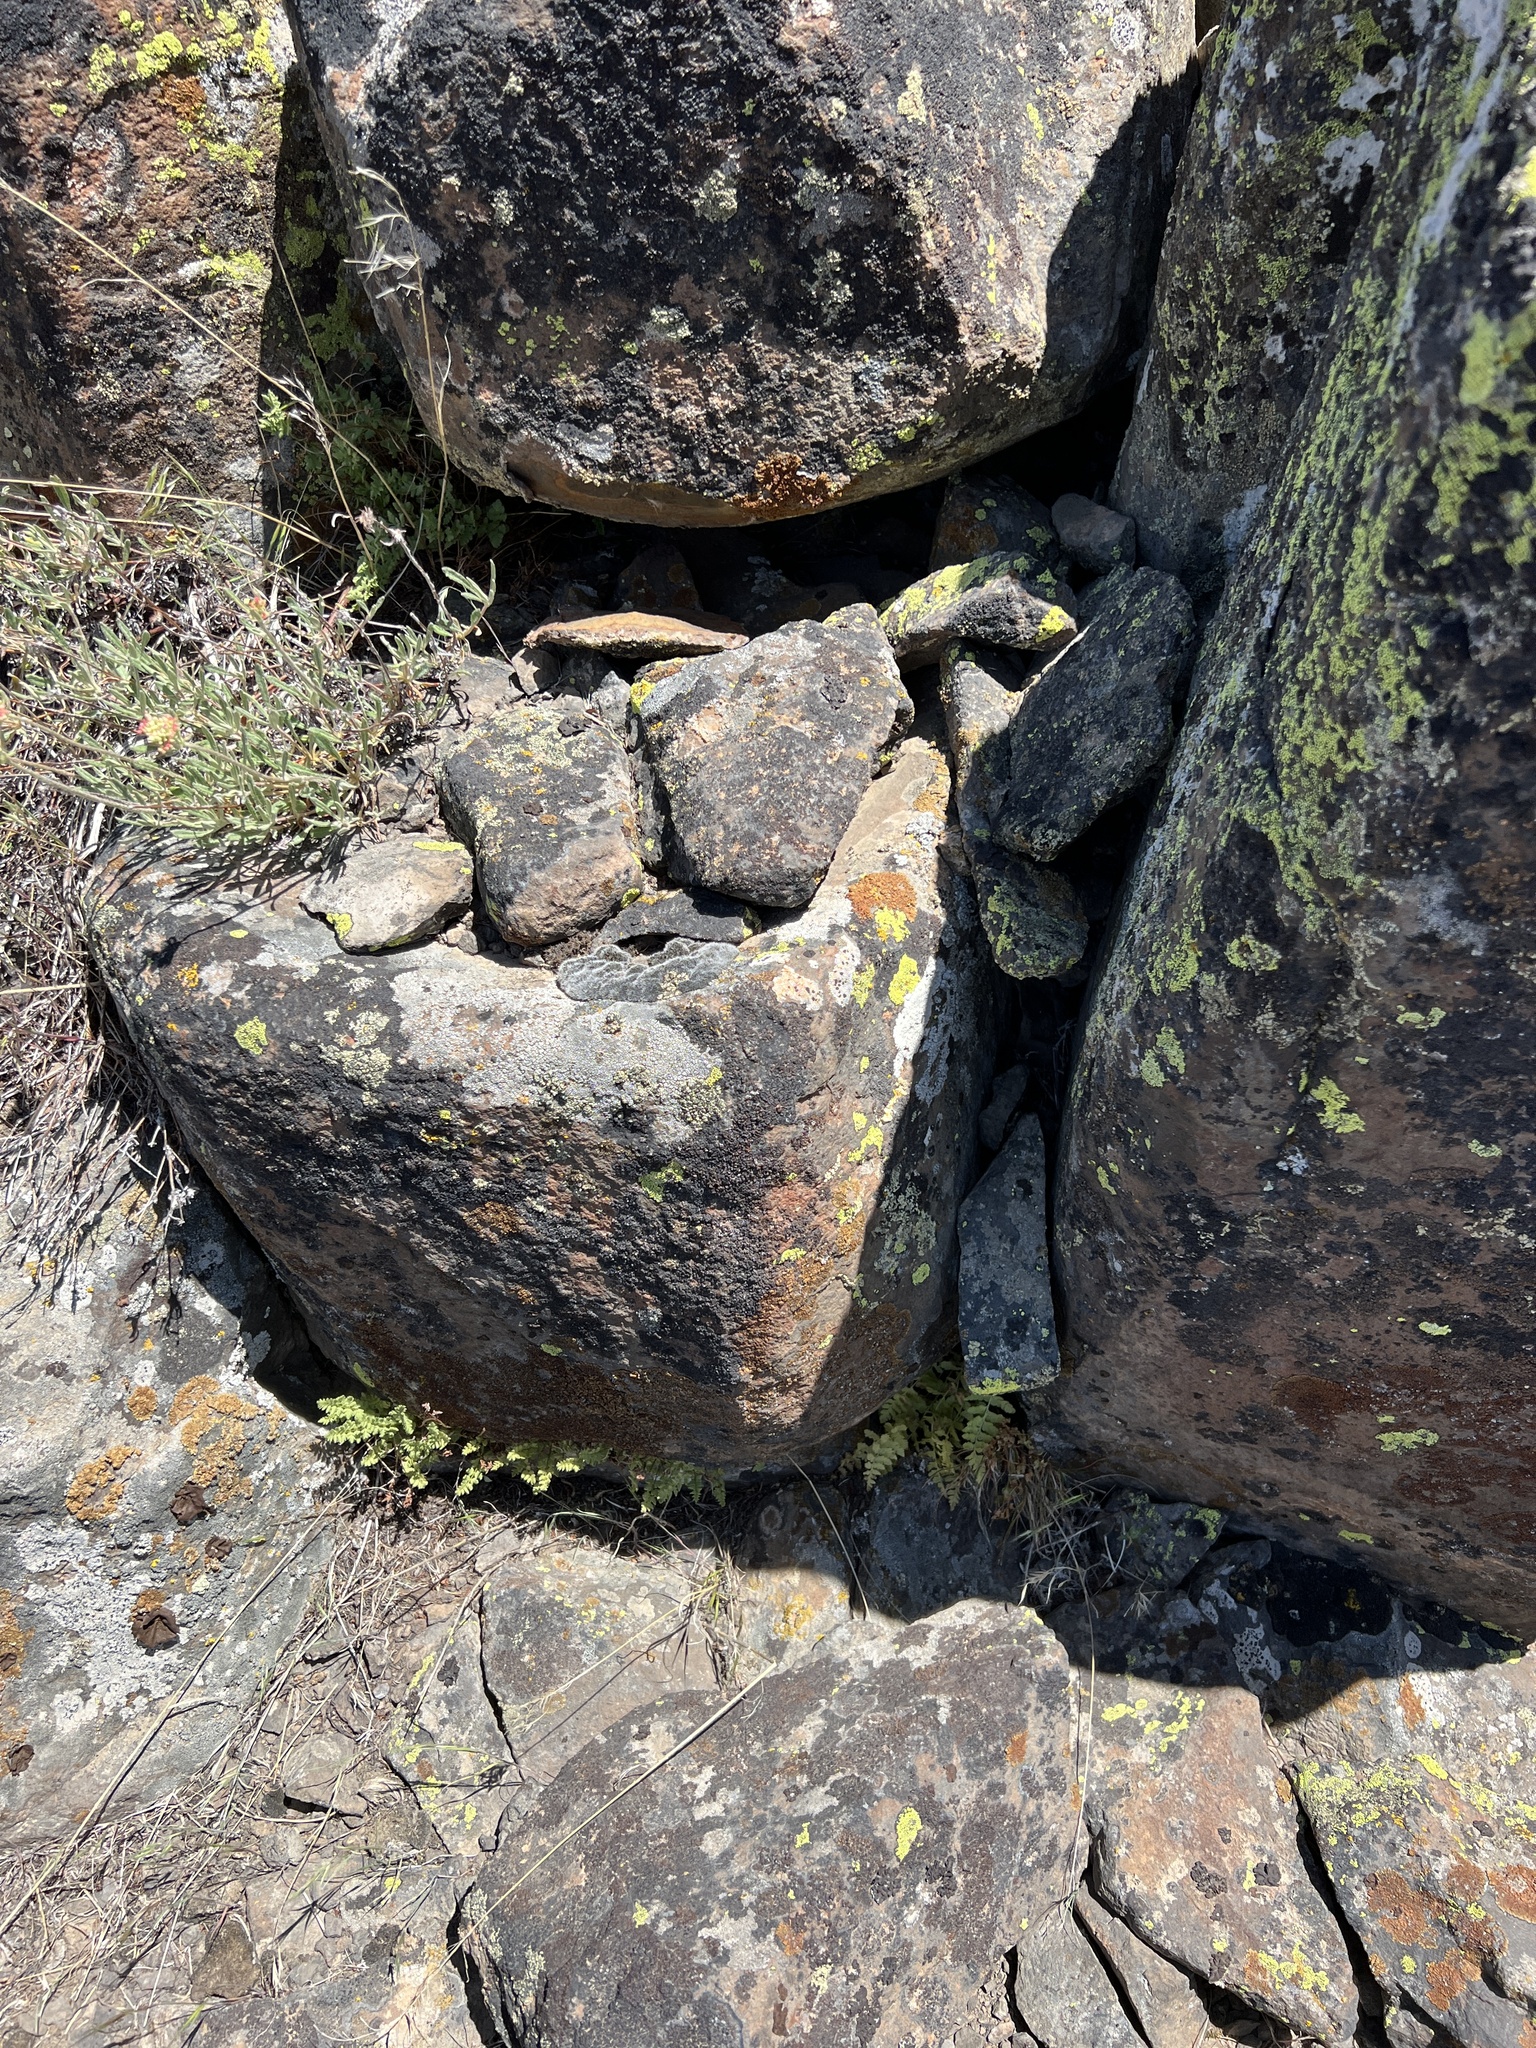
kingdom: Plantae
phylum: Tracheophyta
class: Polypodiopsida
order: Polypodiales
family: Woodsiaceae
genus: Physematium
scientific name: Physematium oreganum
